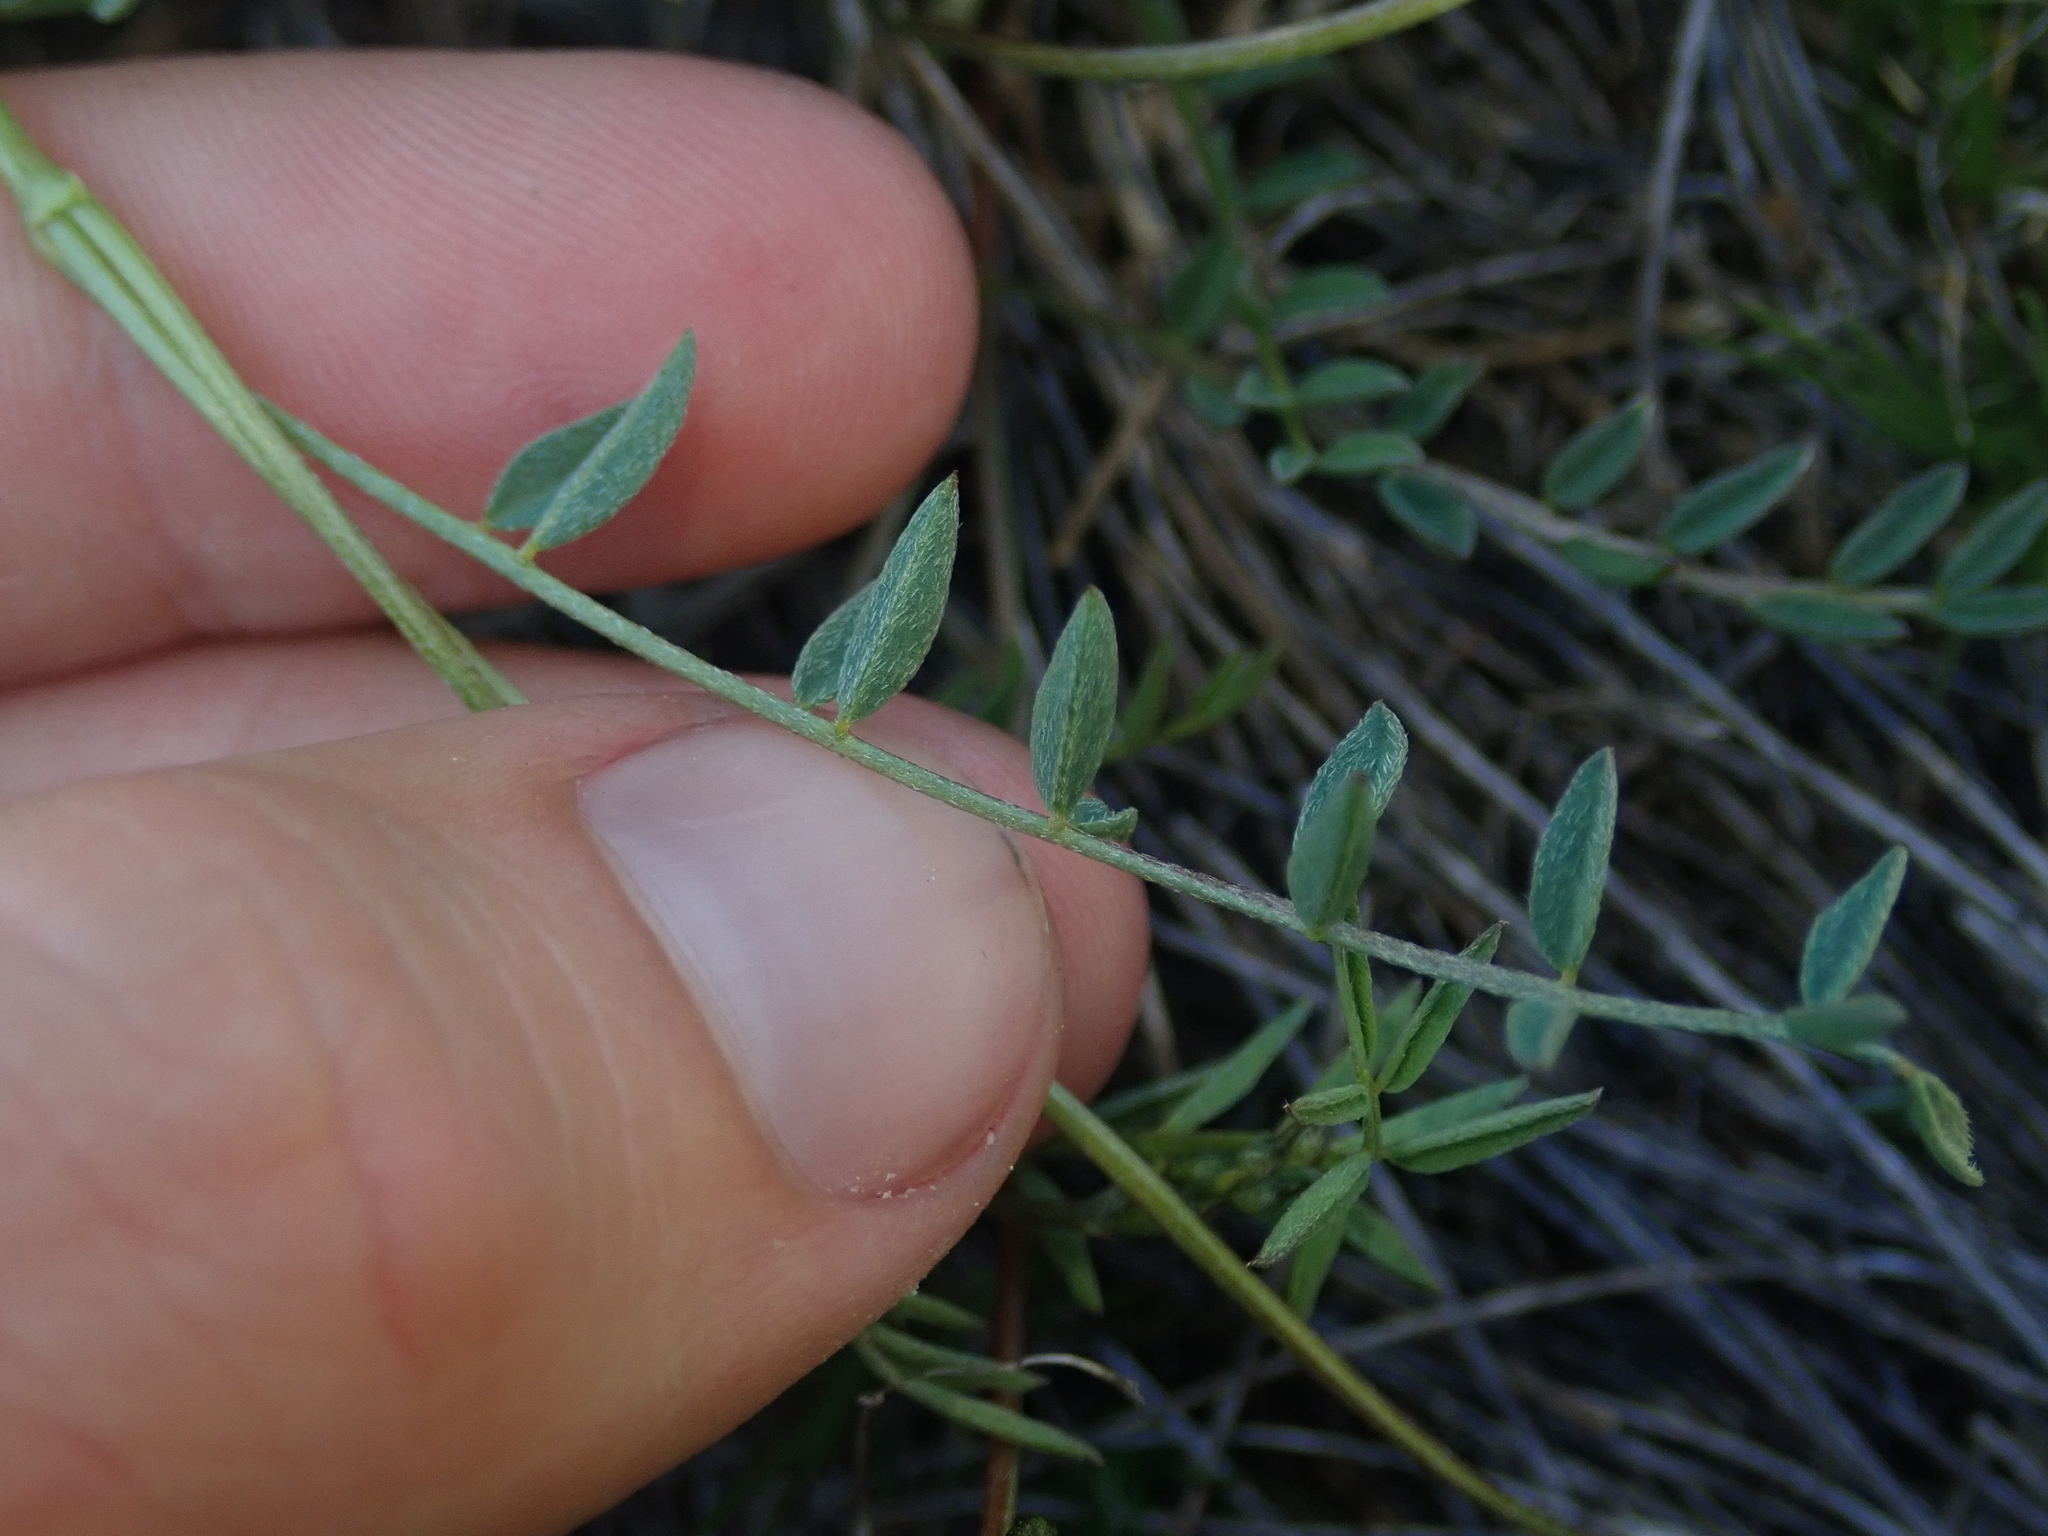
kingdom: Plantae
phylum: Tracheophyta
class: Magnoliopsida
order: Fabales
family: Fabaceae
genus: Astragalus
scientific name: Astragalus bourgovii
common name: Bourgeau's milk-vetch
